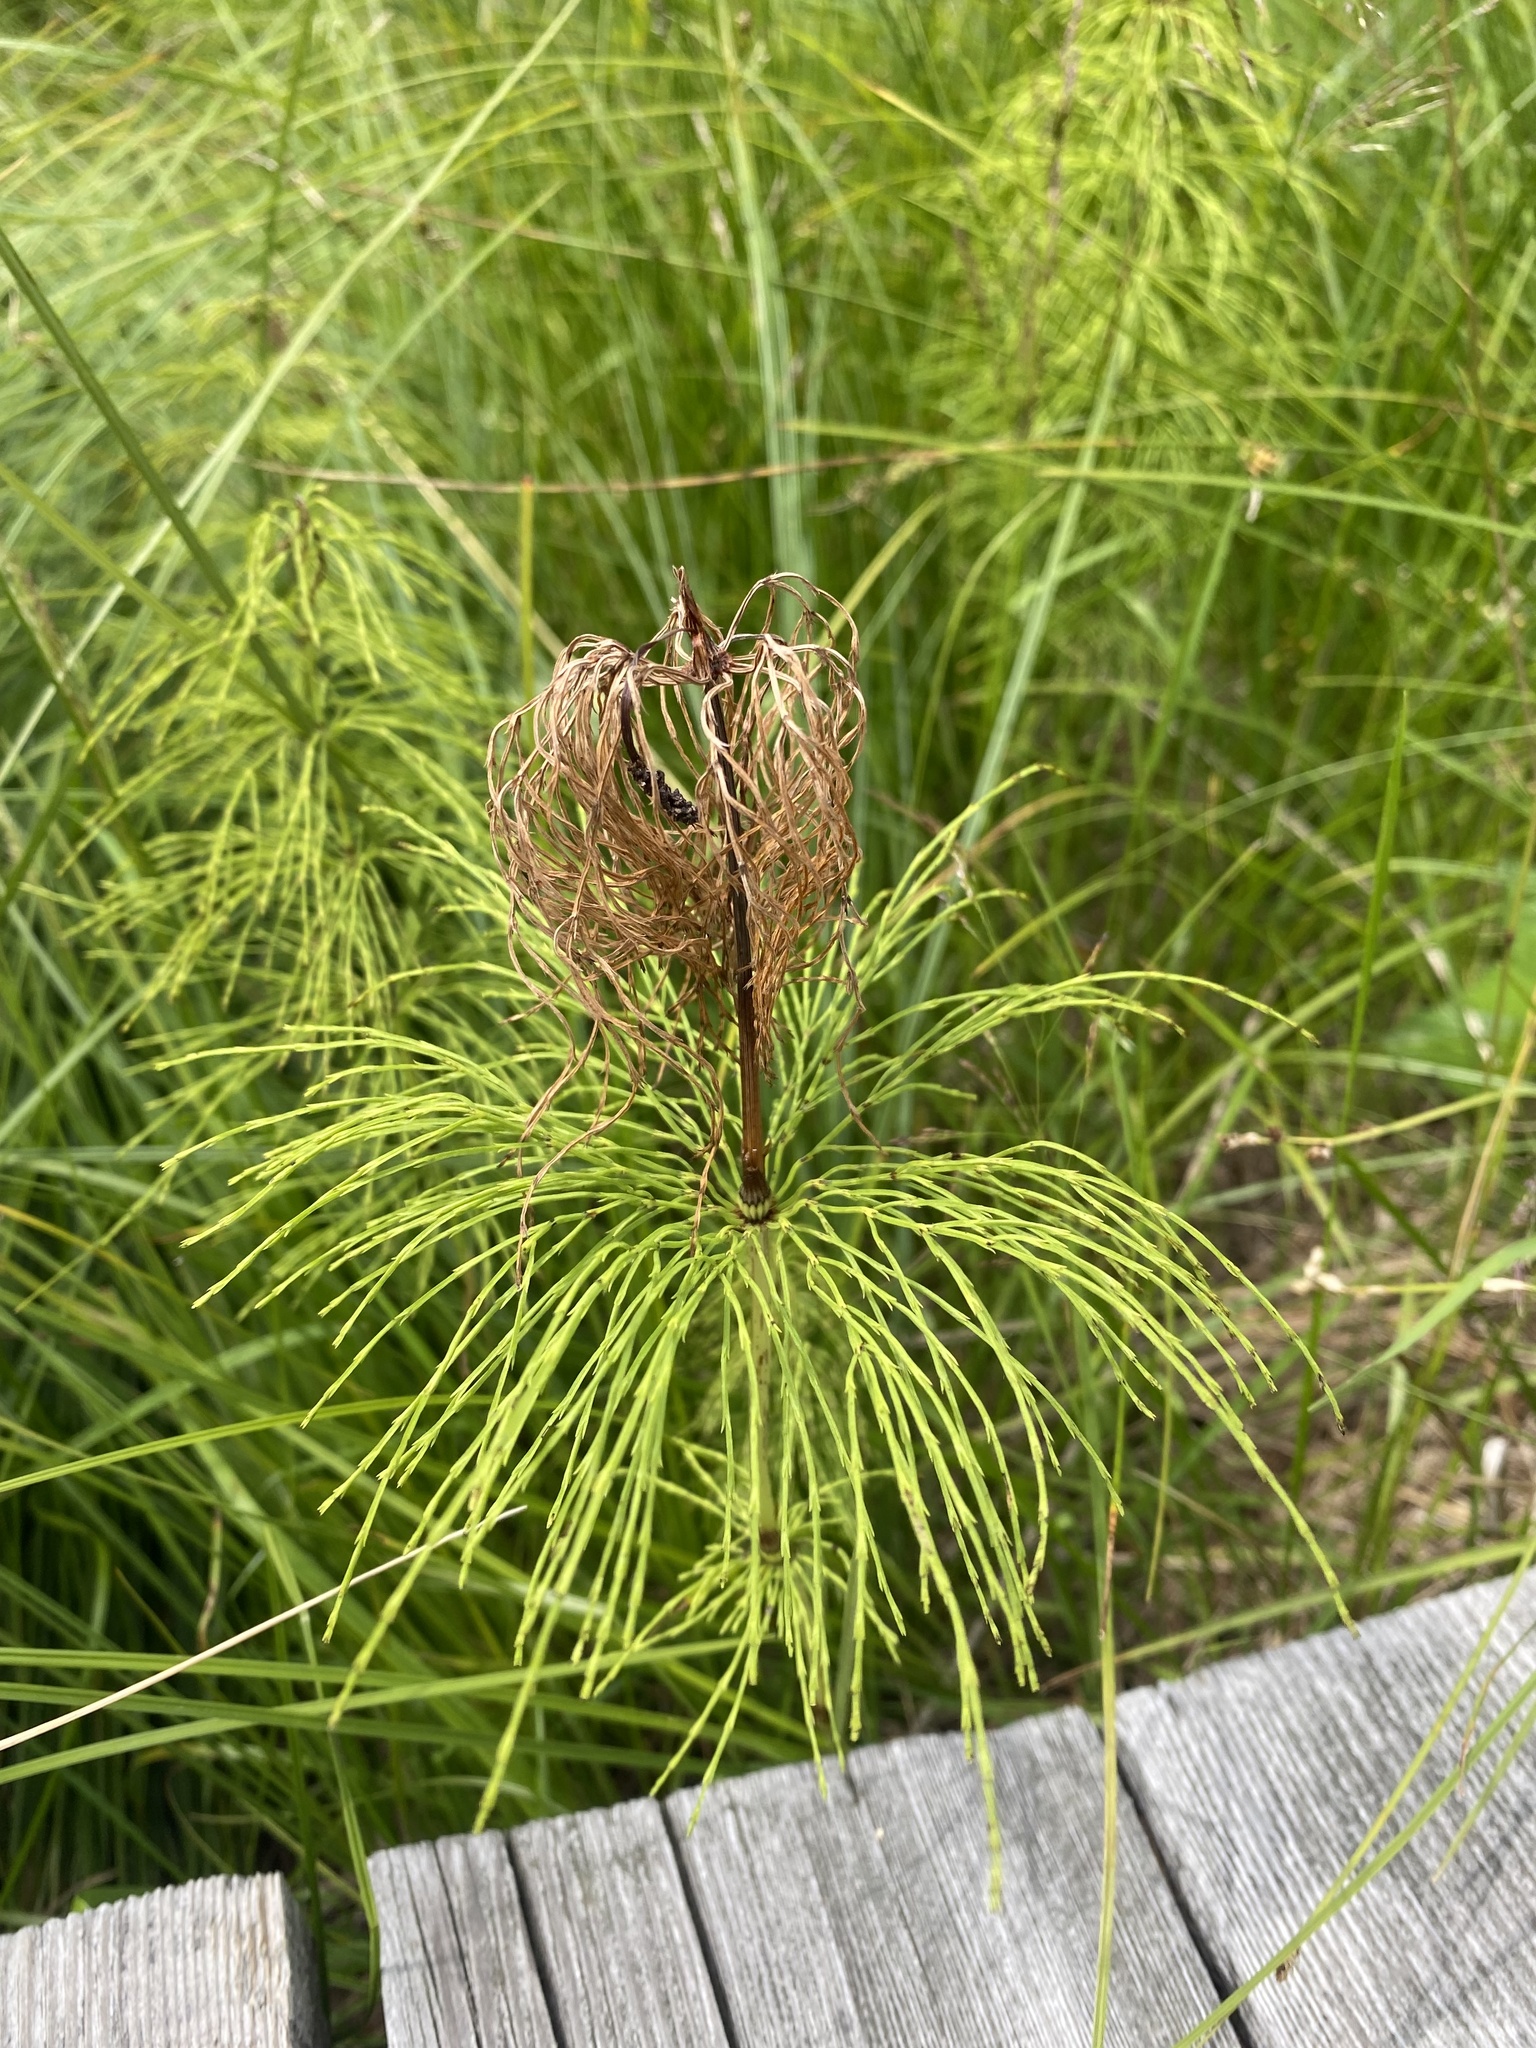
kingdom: Plantae
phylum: Tracheophyta
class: Polypodiopsida
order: Equisetales
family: Equisetaceae
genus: Equisetum
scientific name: Equisetum sylvaticum
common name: Wood horsetail
